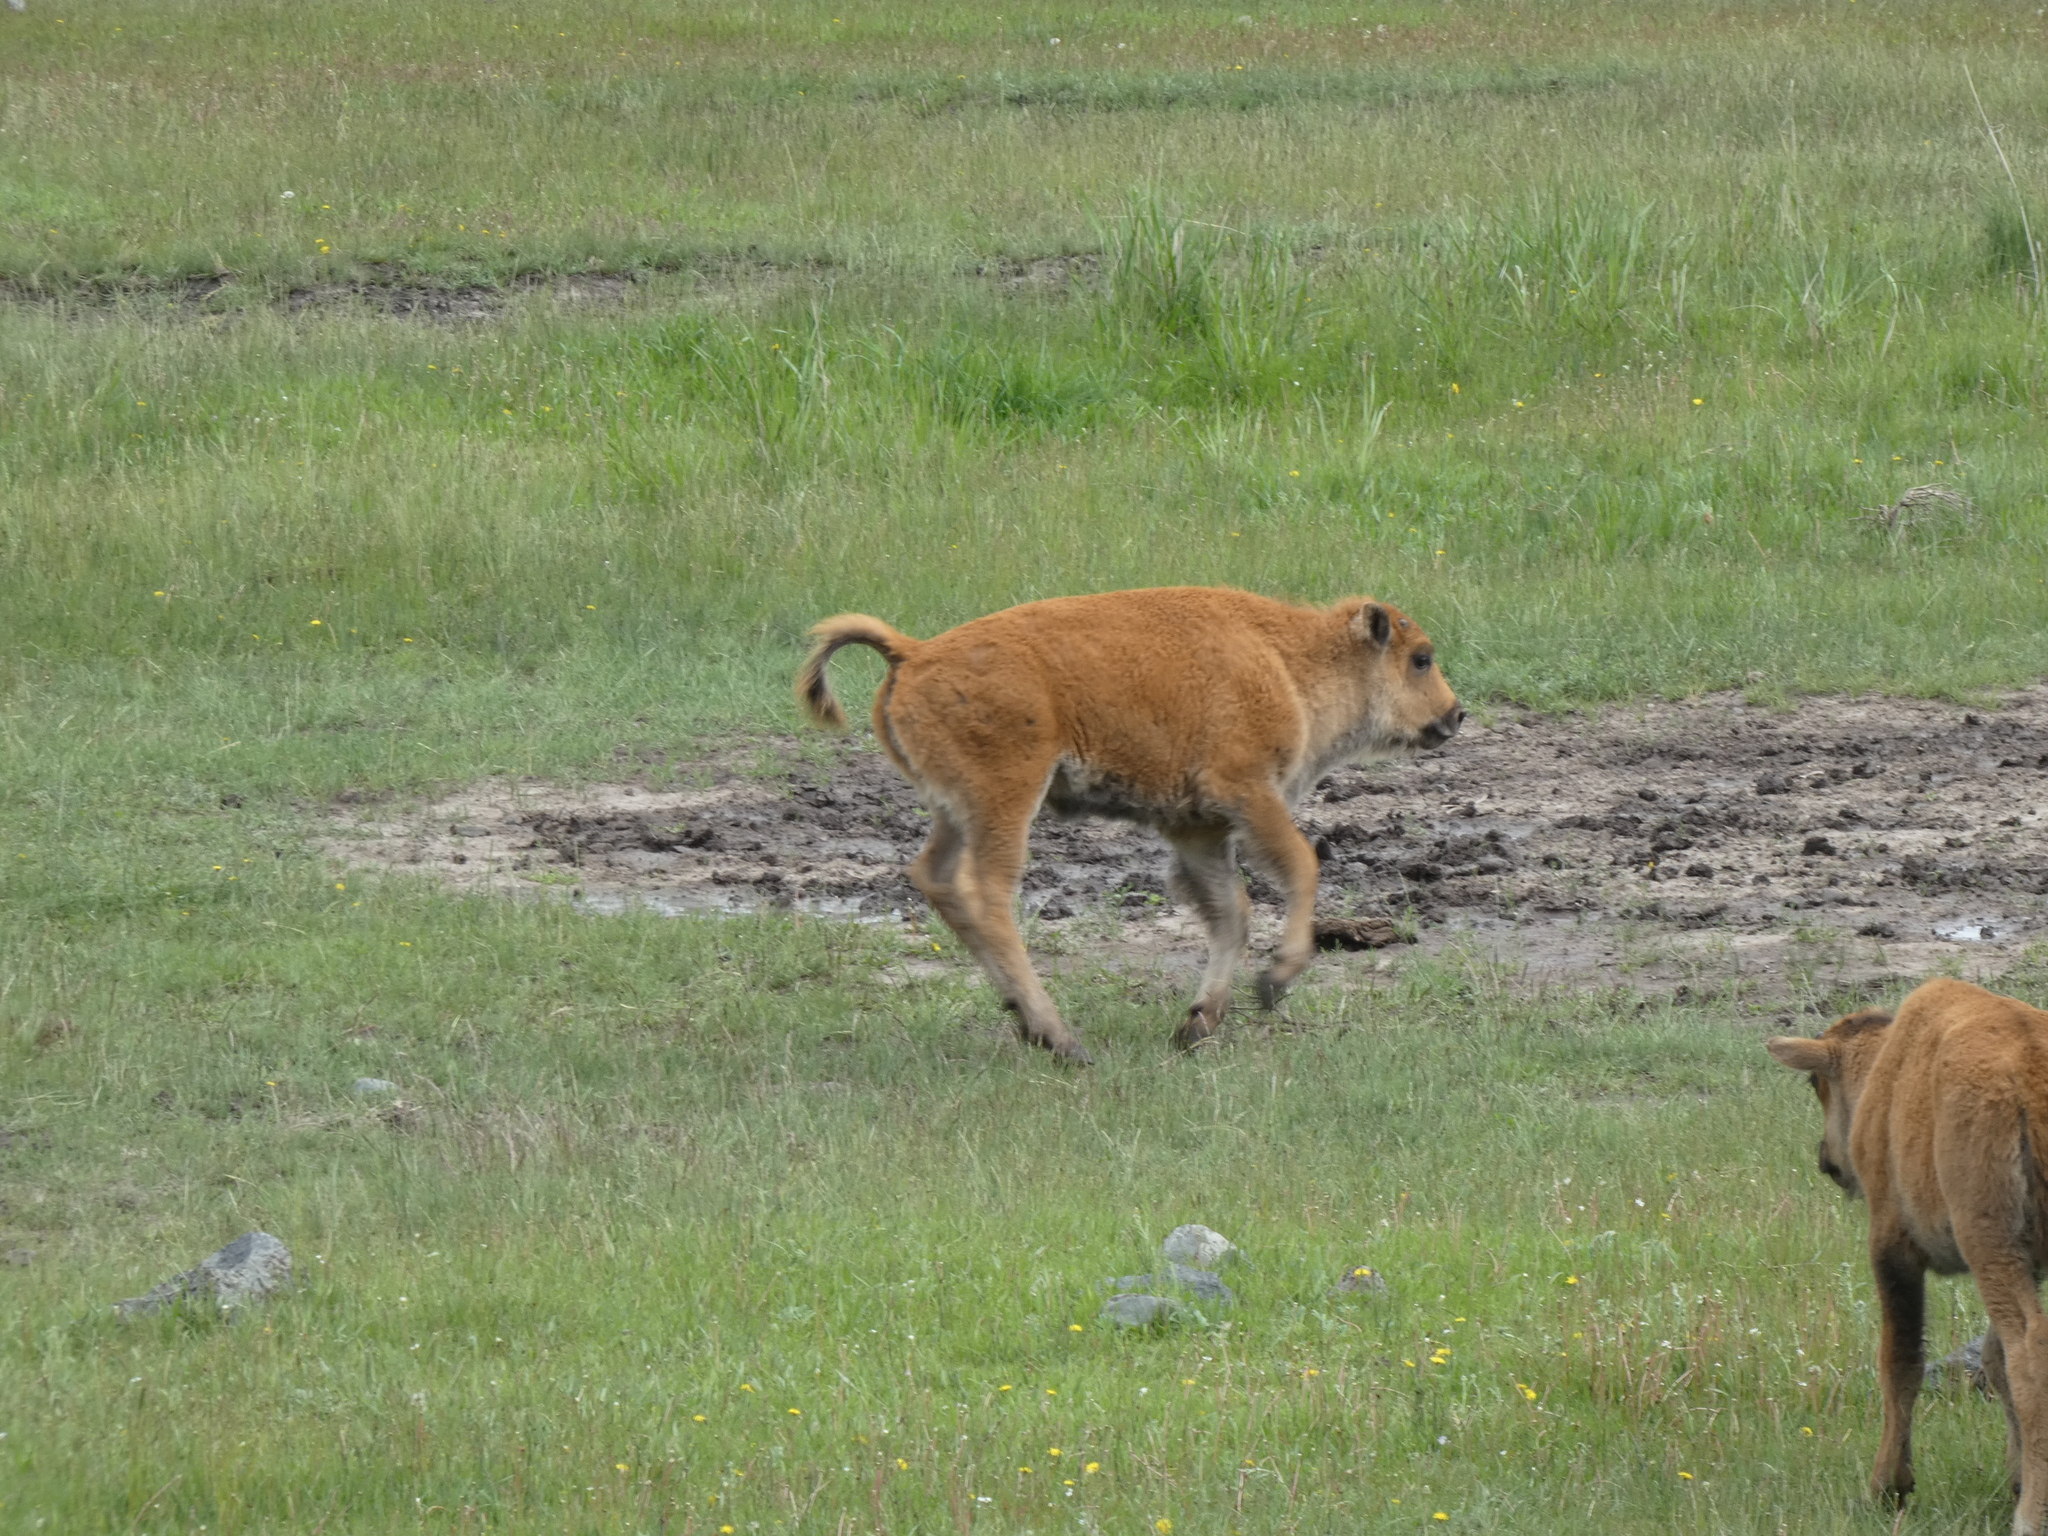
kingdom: Animalia
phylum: Chordata
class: Mammalia
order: Artiodactyla
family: Bovidae
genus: Bison
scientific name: Bison bison
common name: American bison
